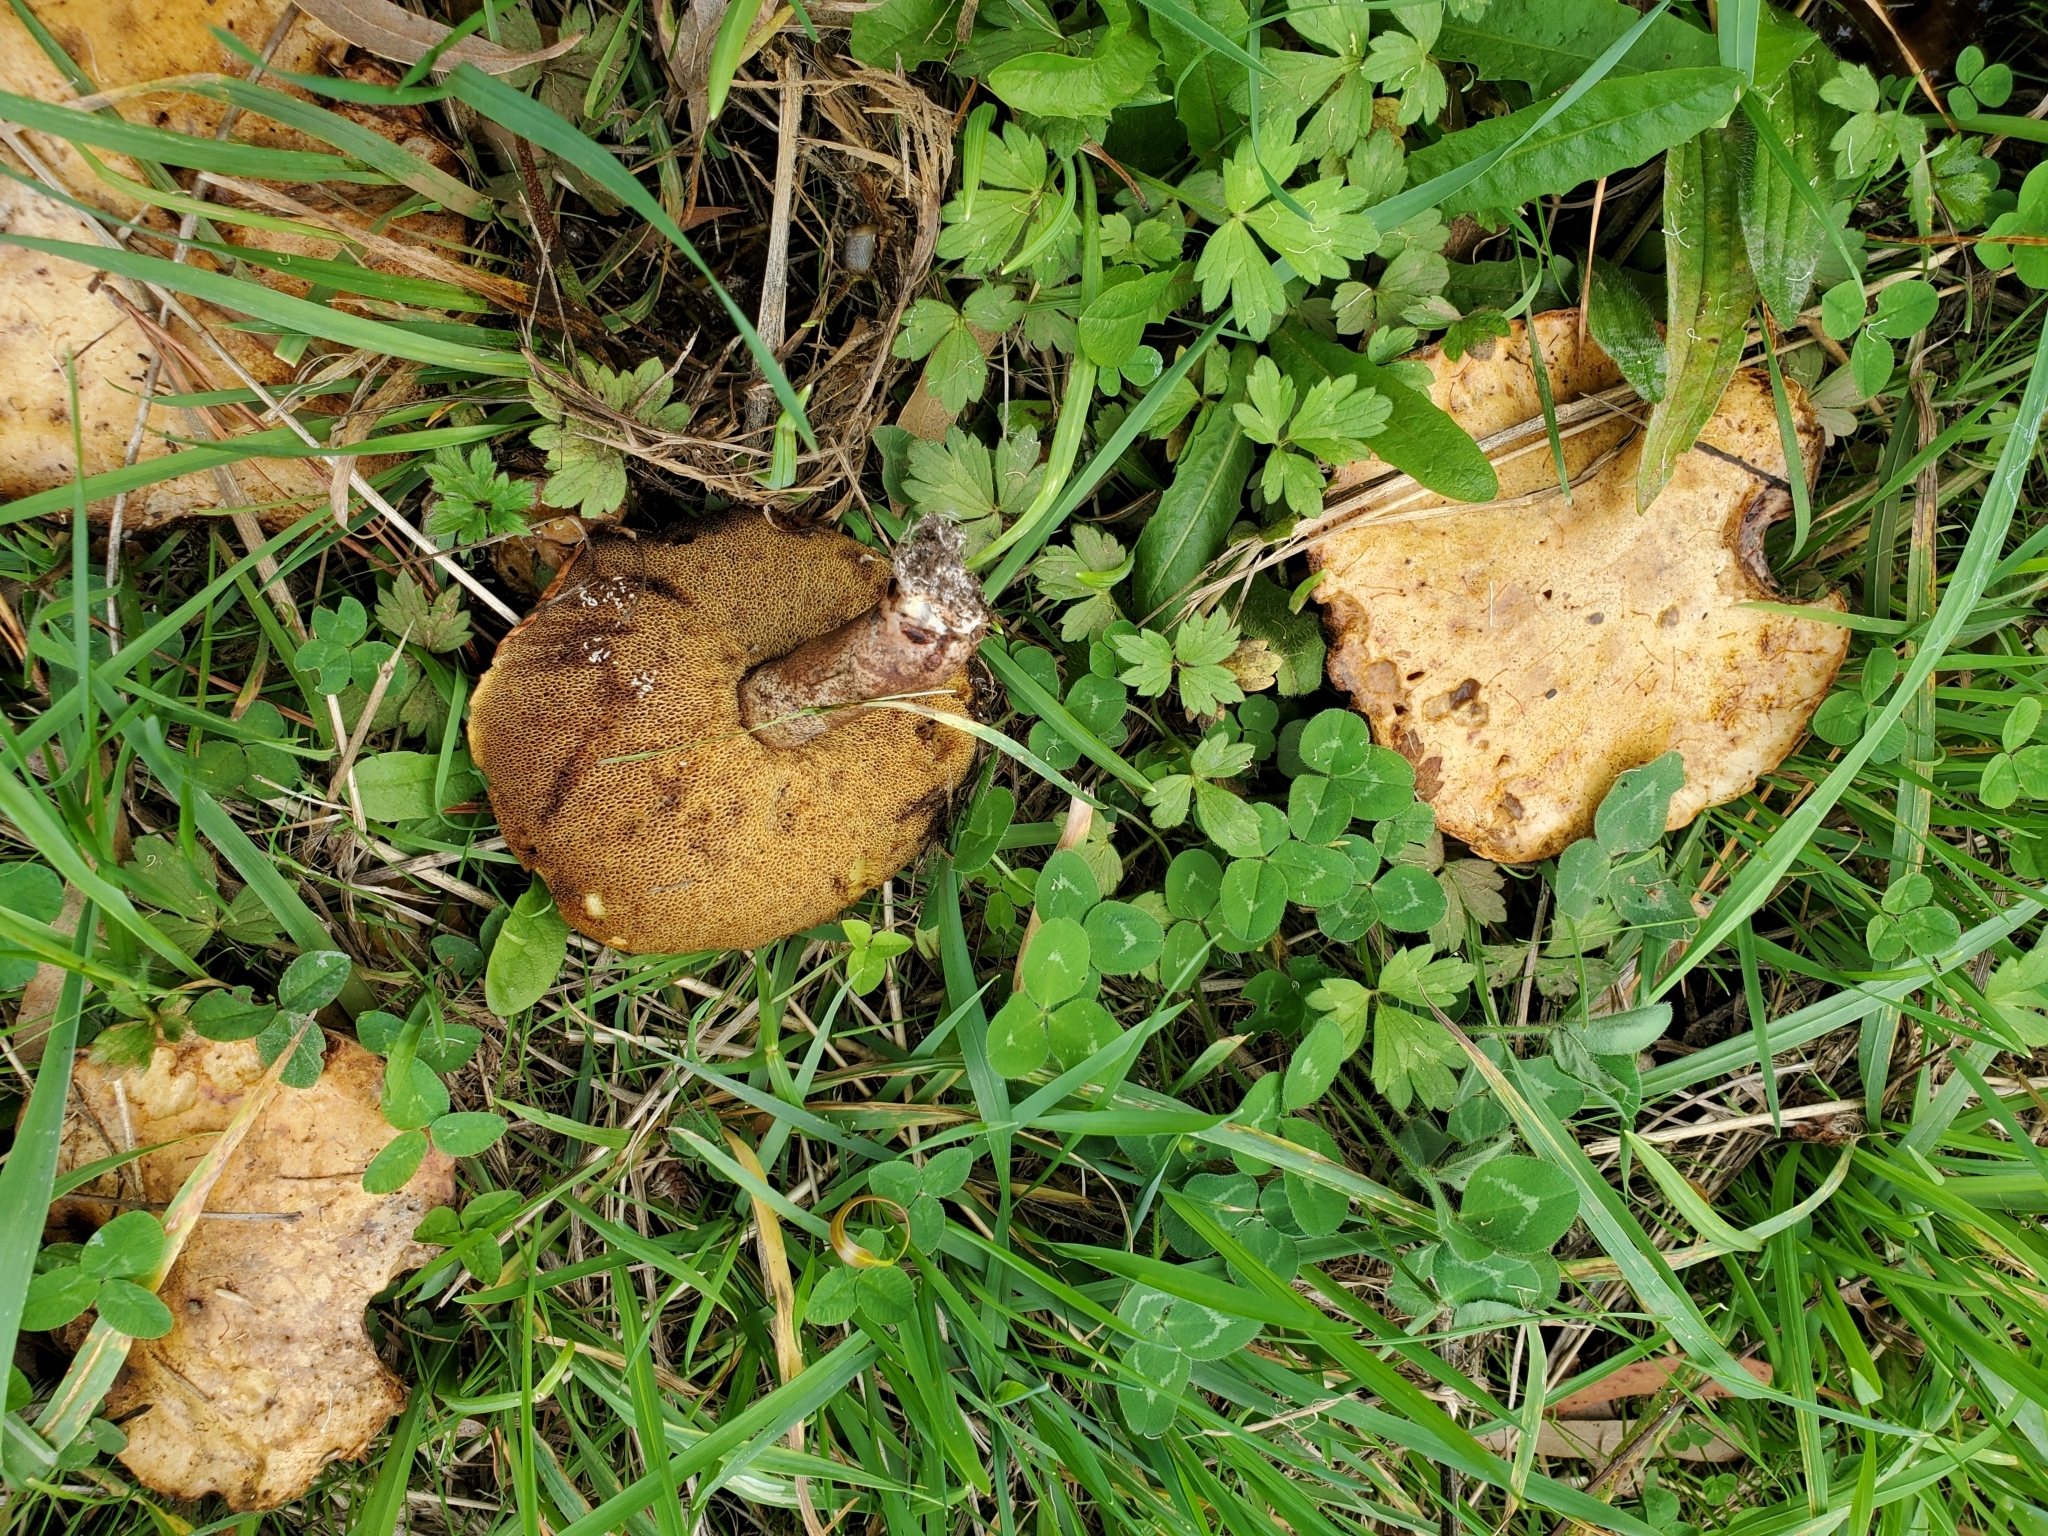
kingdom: Fungi
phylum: Basidiomycota
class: Agaricomycetes
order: Boletales
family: Suillaceae
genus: Suillus
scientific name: Suillus granulatus
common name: Weeping bolete
